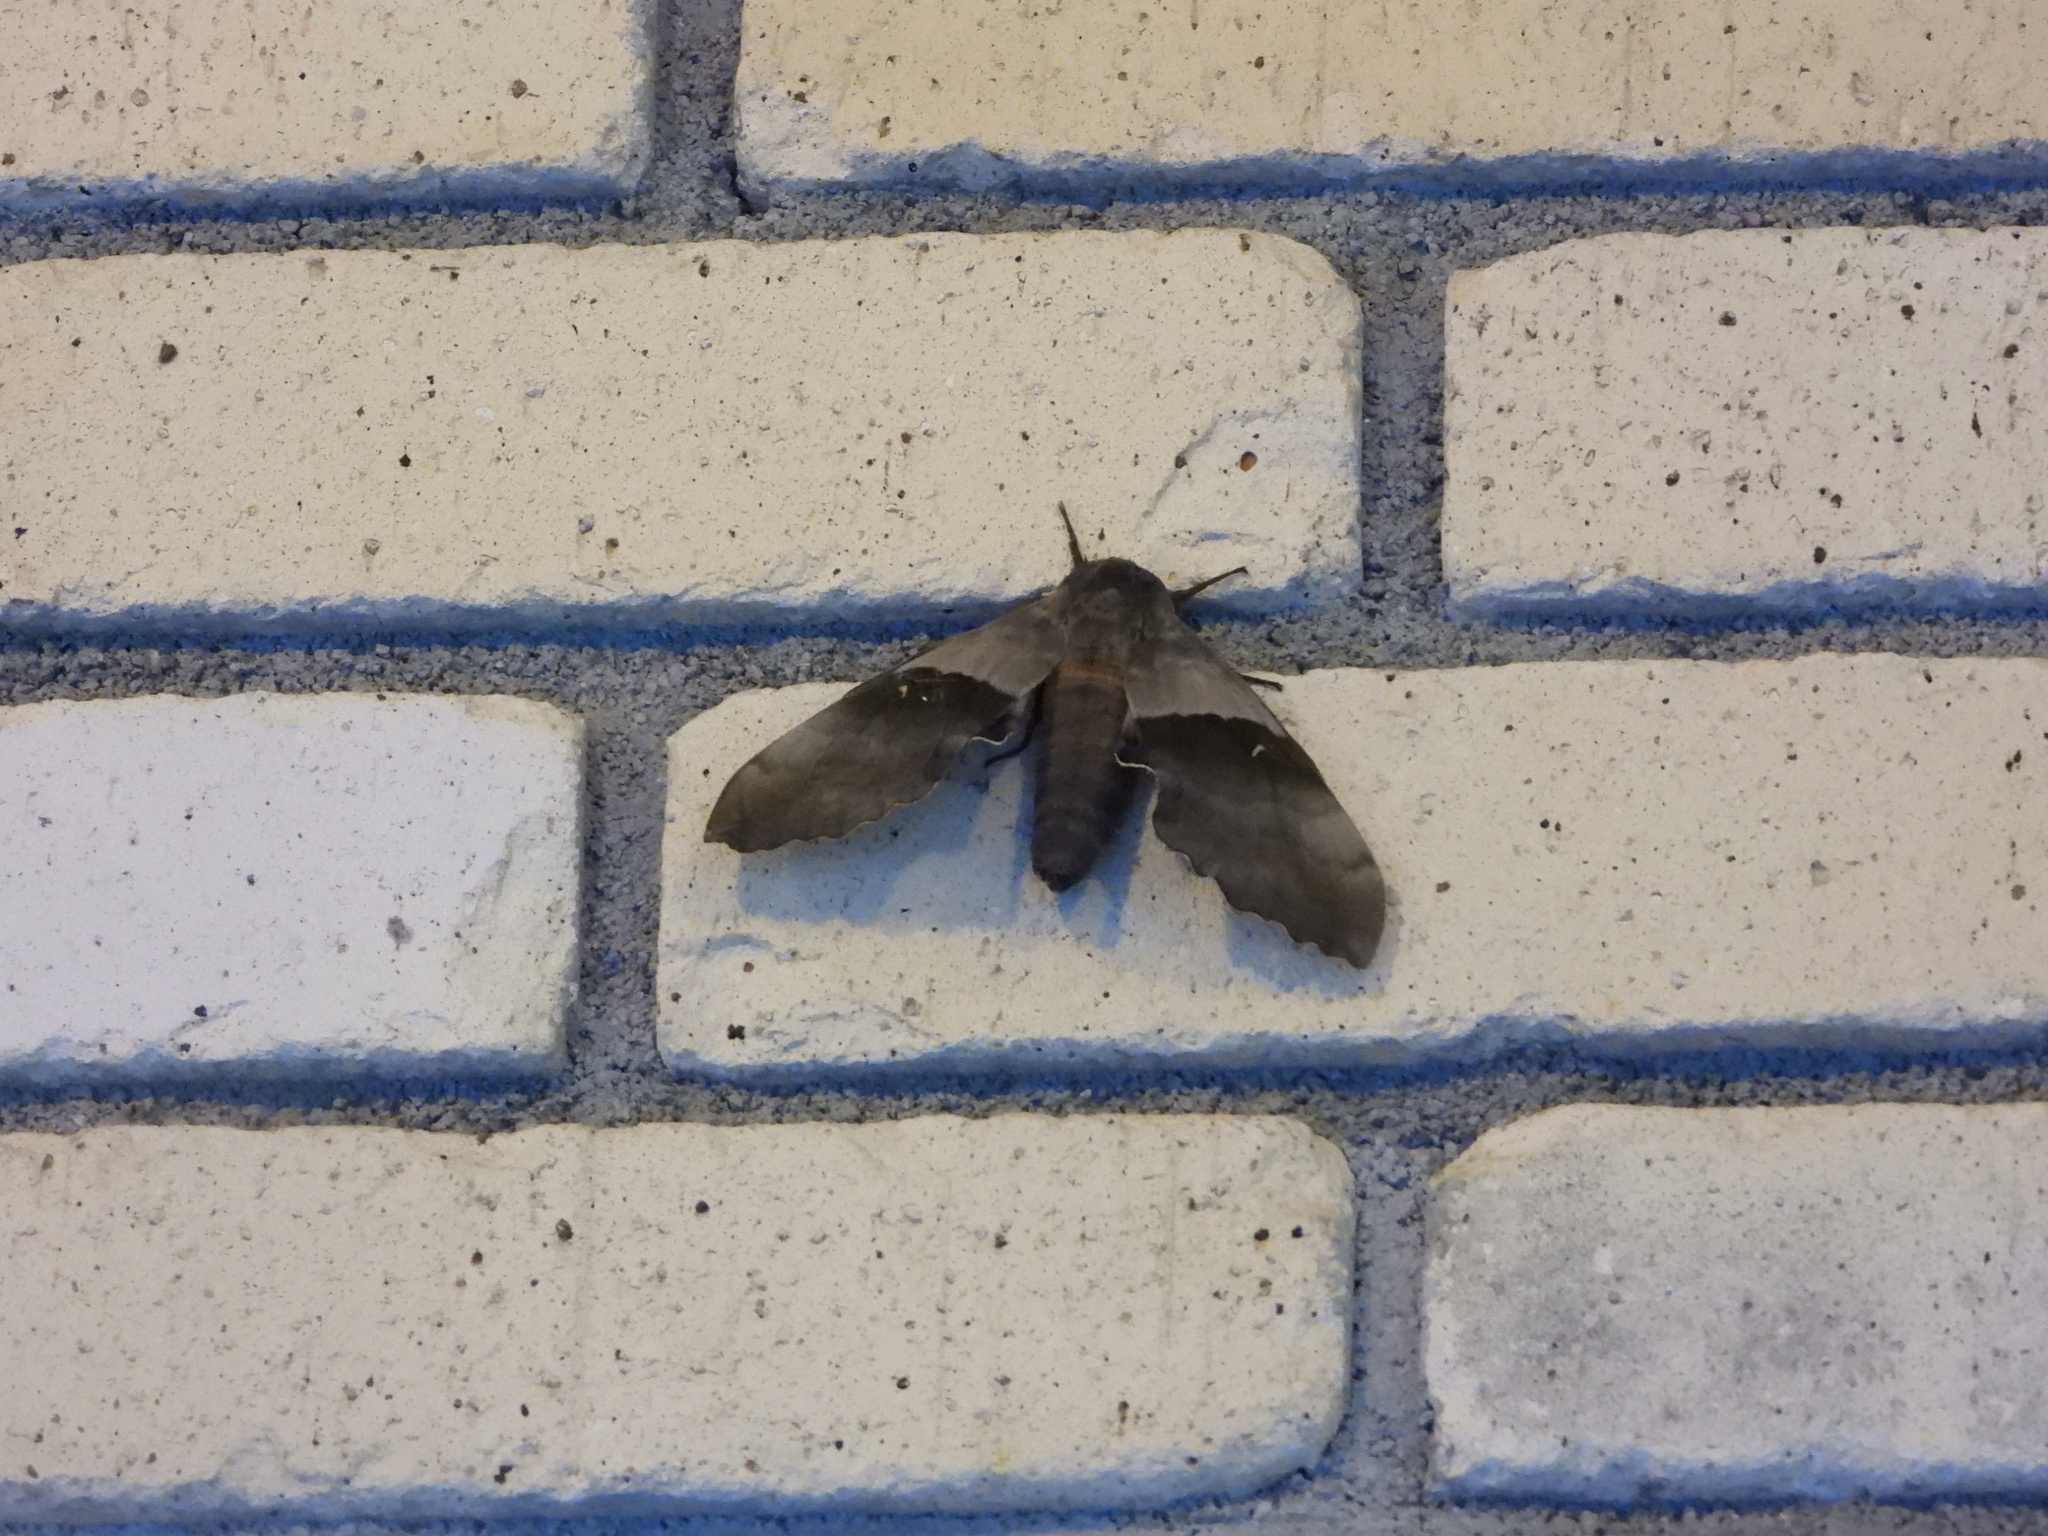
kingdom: Animalia
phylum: Arthropoda
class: Insecta
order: Lepidoptera
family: Sphingidae
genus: Pachysphinx
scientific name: Pachysphinx modesta
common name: Big poplar sphinx
